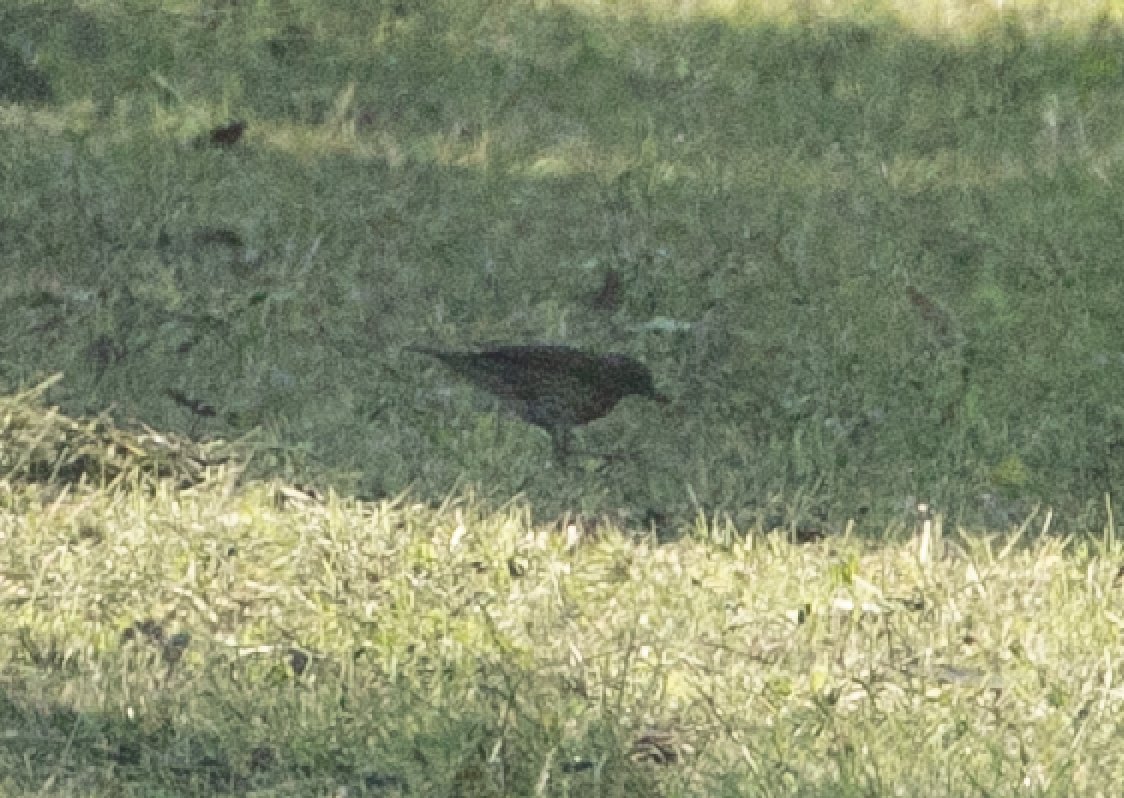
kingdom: Animalia
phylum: Chordata
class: Aves
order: Passeriformes
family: Turdidae
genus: Turdus
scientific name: Turdus philomelos
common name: Song thrush
